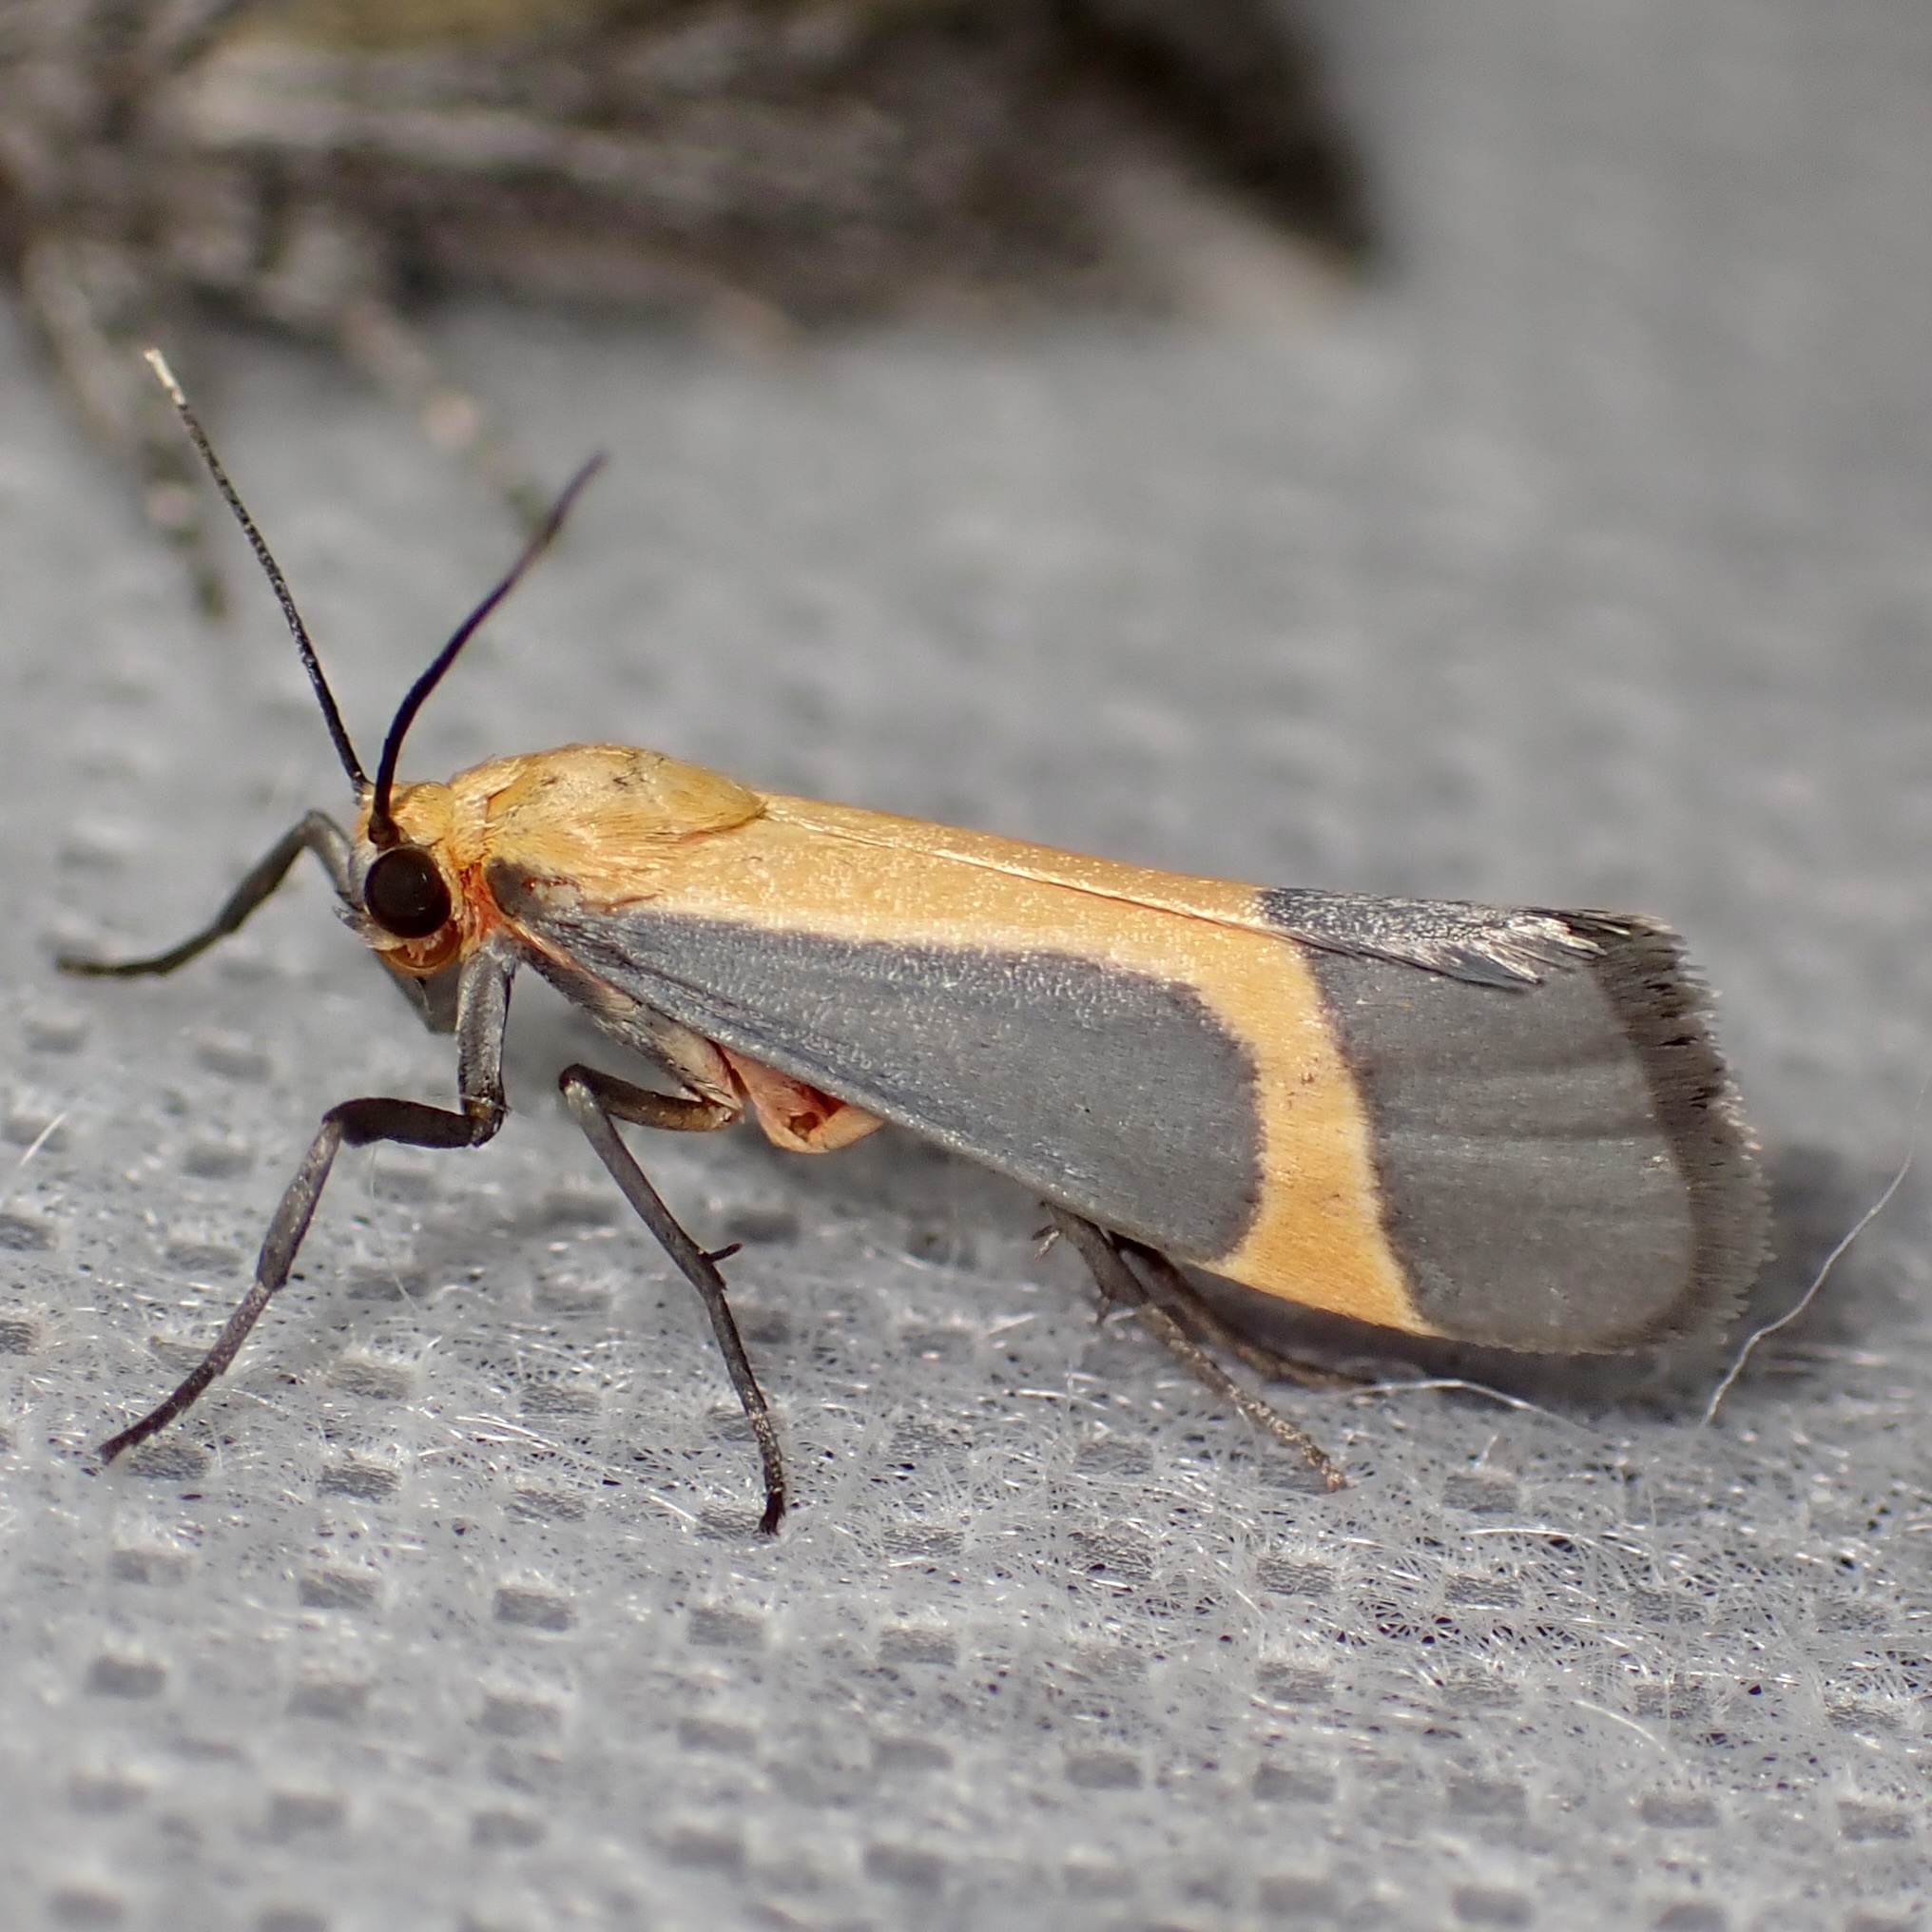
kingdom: Animalia
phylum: Arthropoda
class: Insecta
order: Lepidoptera
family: Erebidae
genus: Cisthene
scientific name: Cisthene angelus
